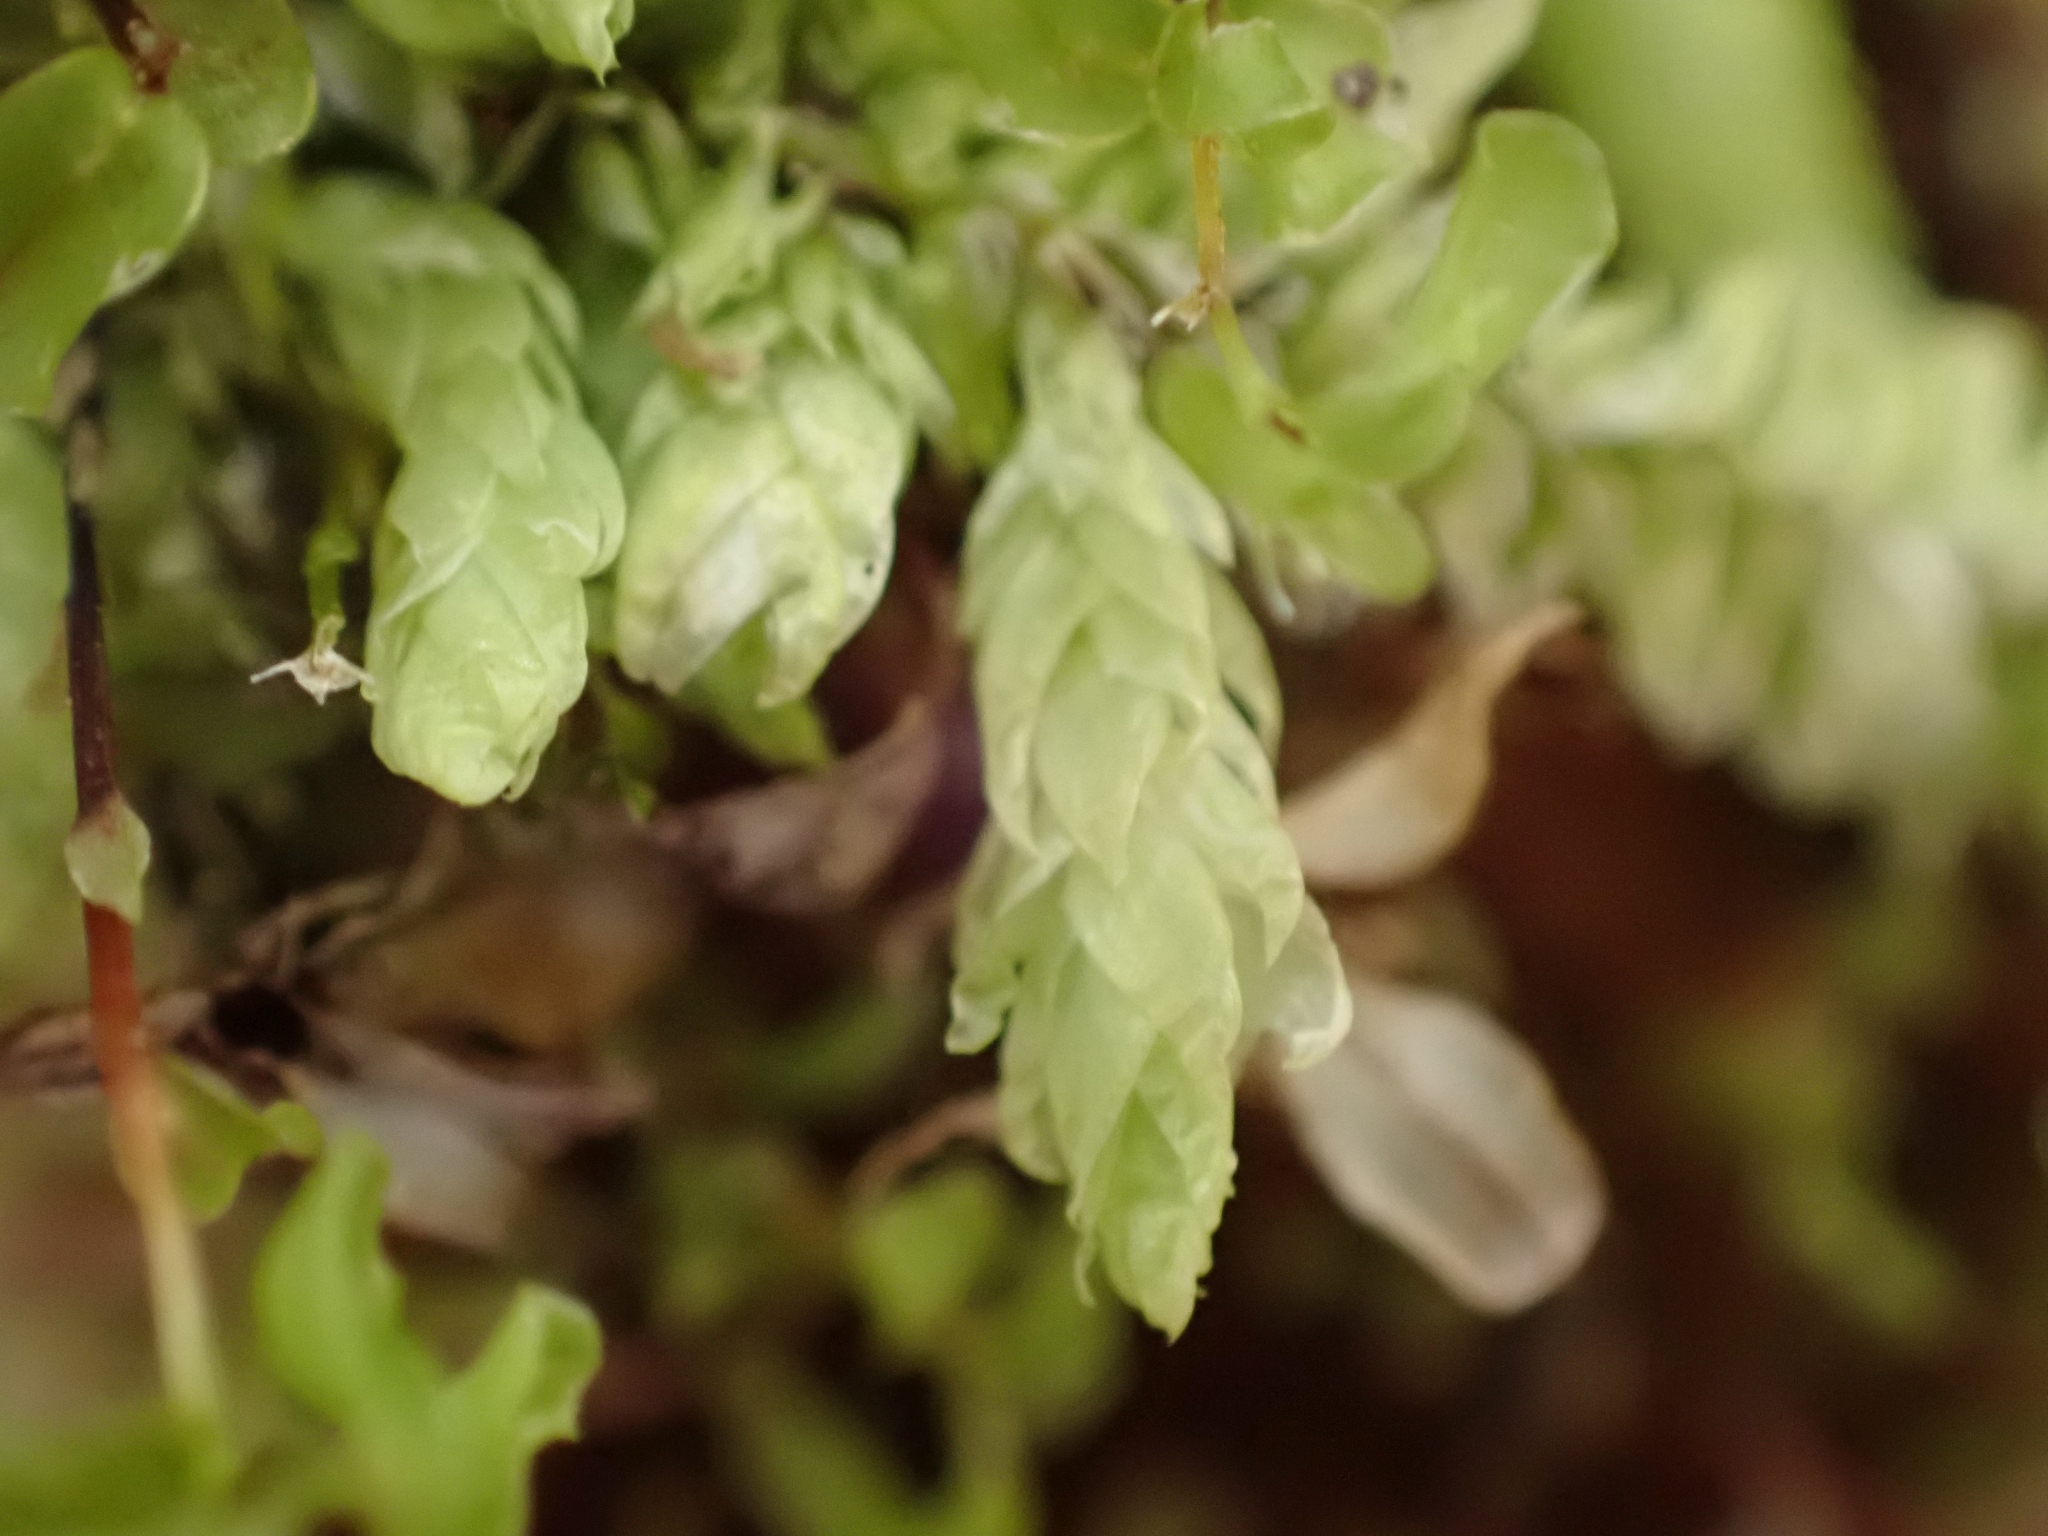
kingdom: Plantae
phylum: Bryophyta
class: Bryopsida
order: Hypnales
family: Plagiotheciaceae
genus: Plagiothecium
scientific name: Plagiothecium undulatum
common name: Waved silk-moss
